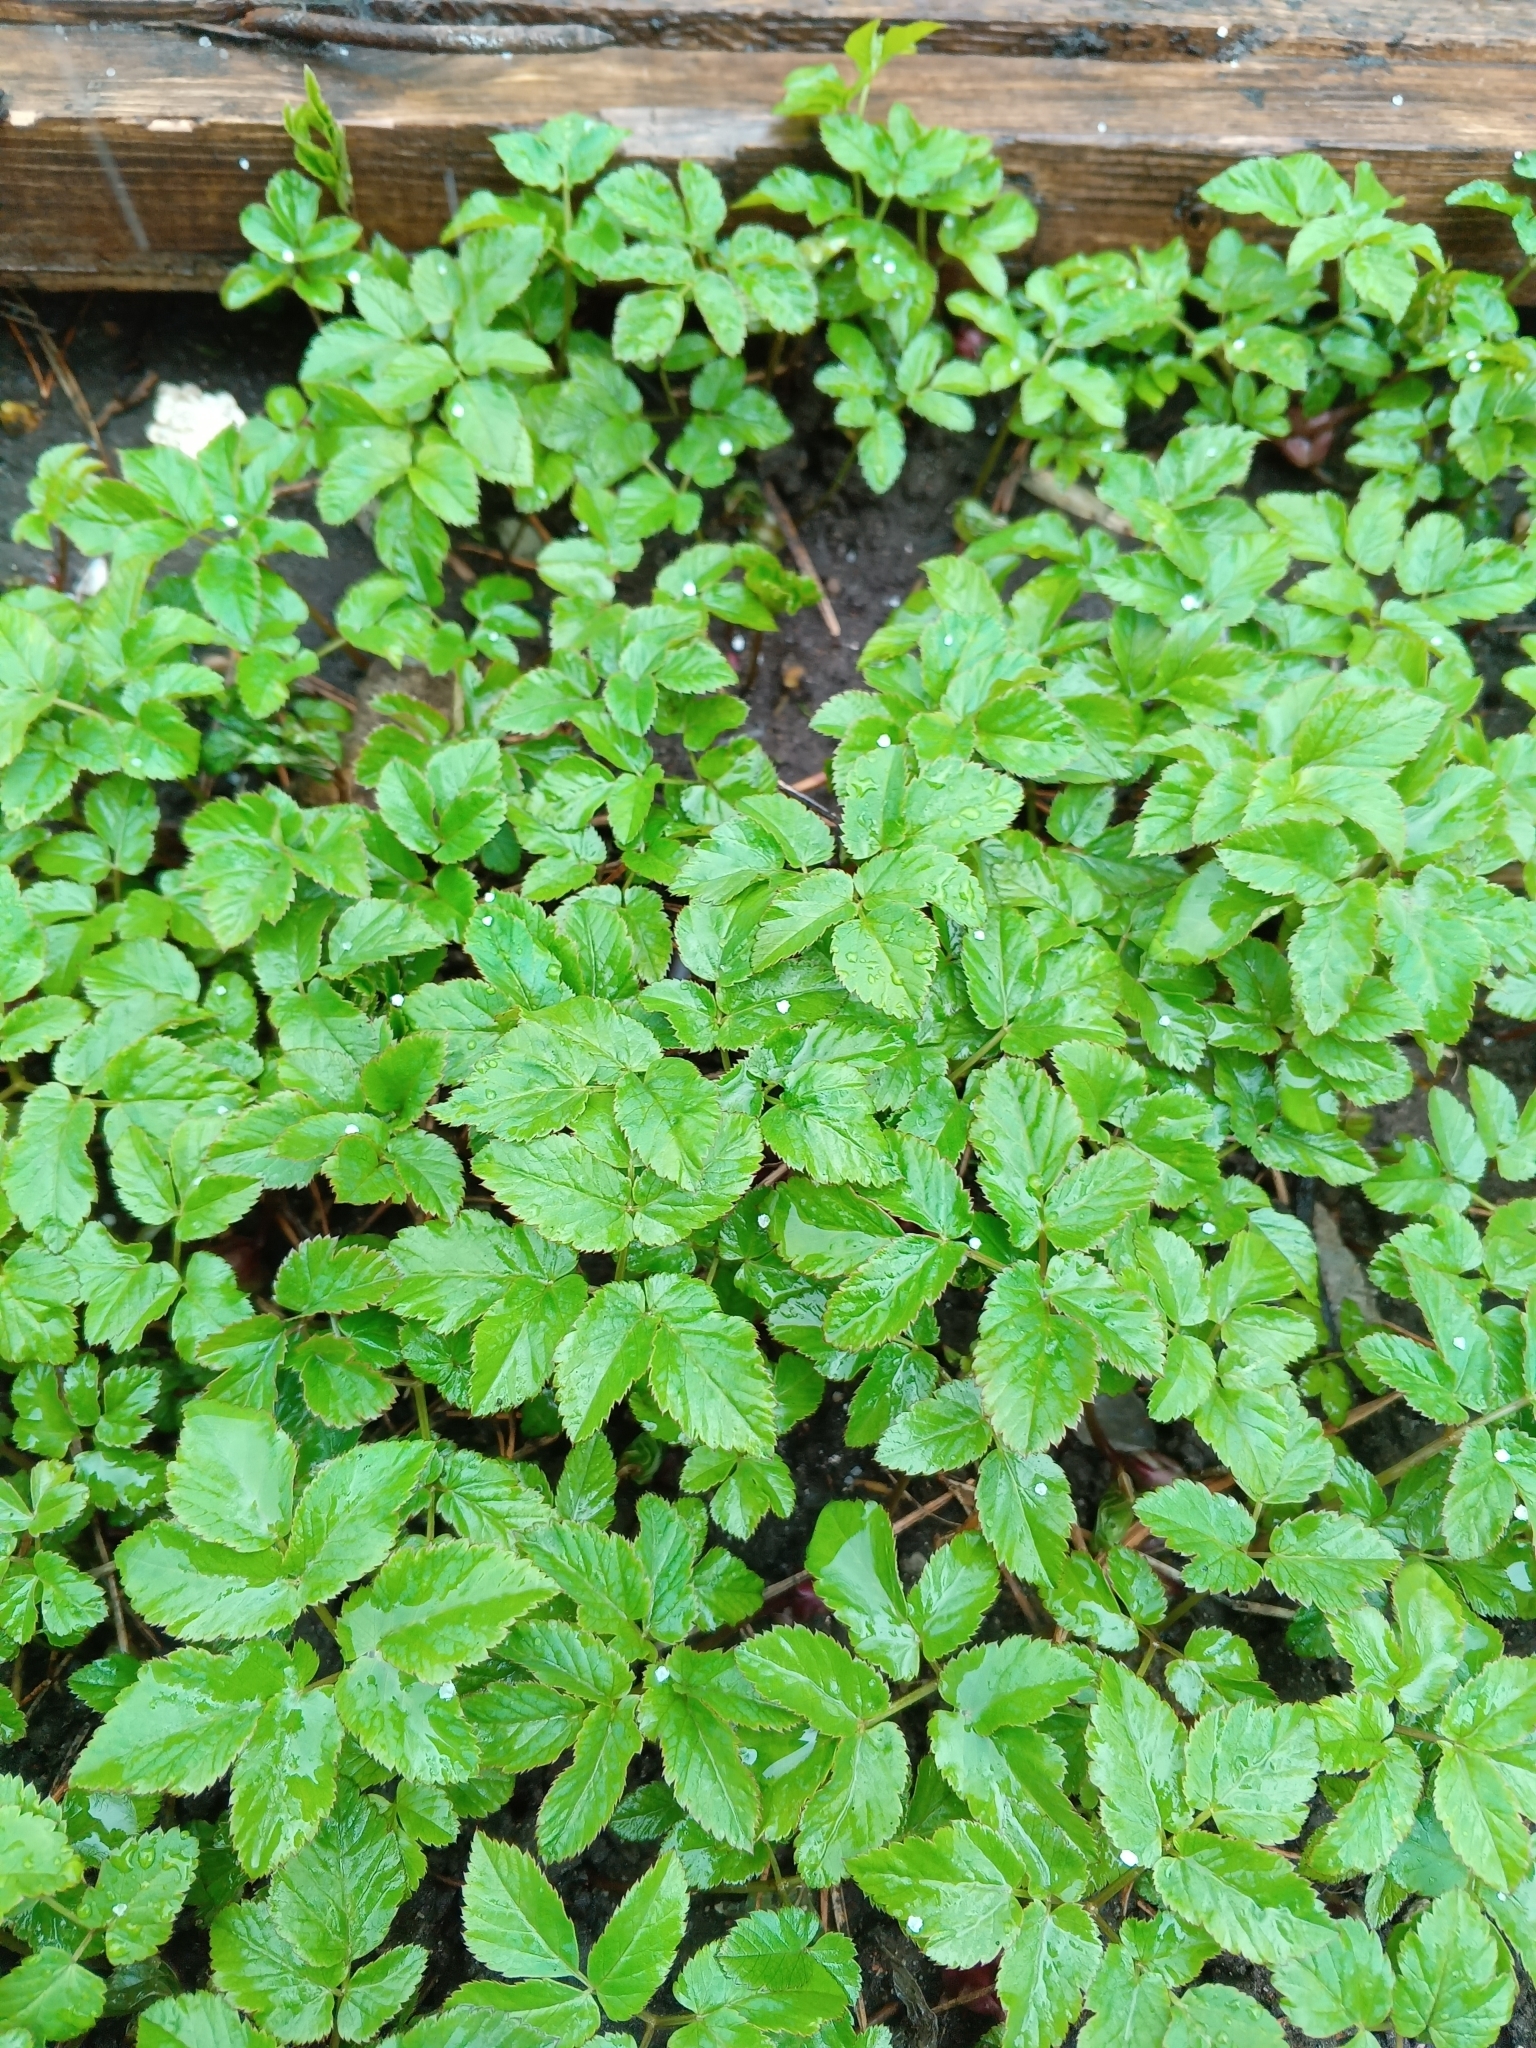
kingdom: Plantae
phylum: Tracheophyta
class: Magnoliopsida
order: Apiales
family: Apiaceae
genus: Aegopodium
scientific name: Aegopodium podagraria
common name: Ground-elder
